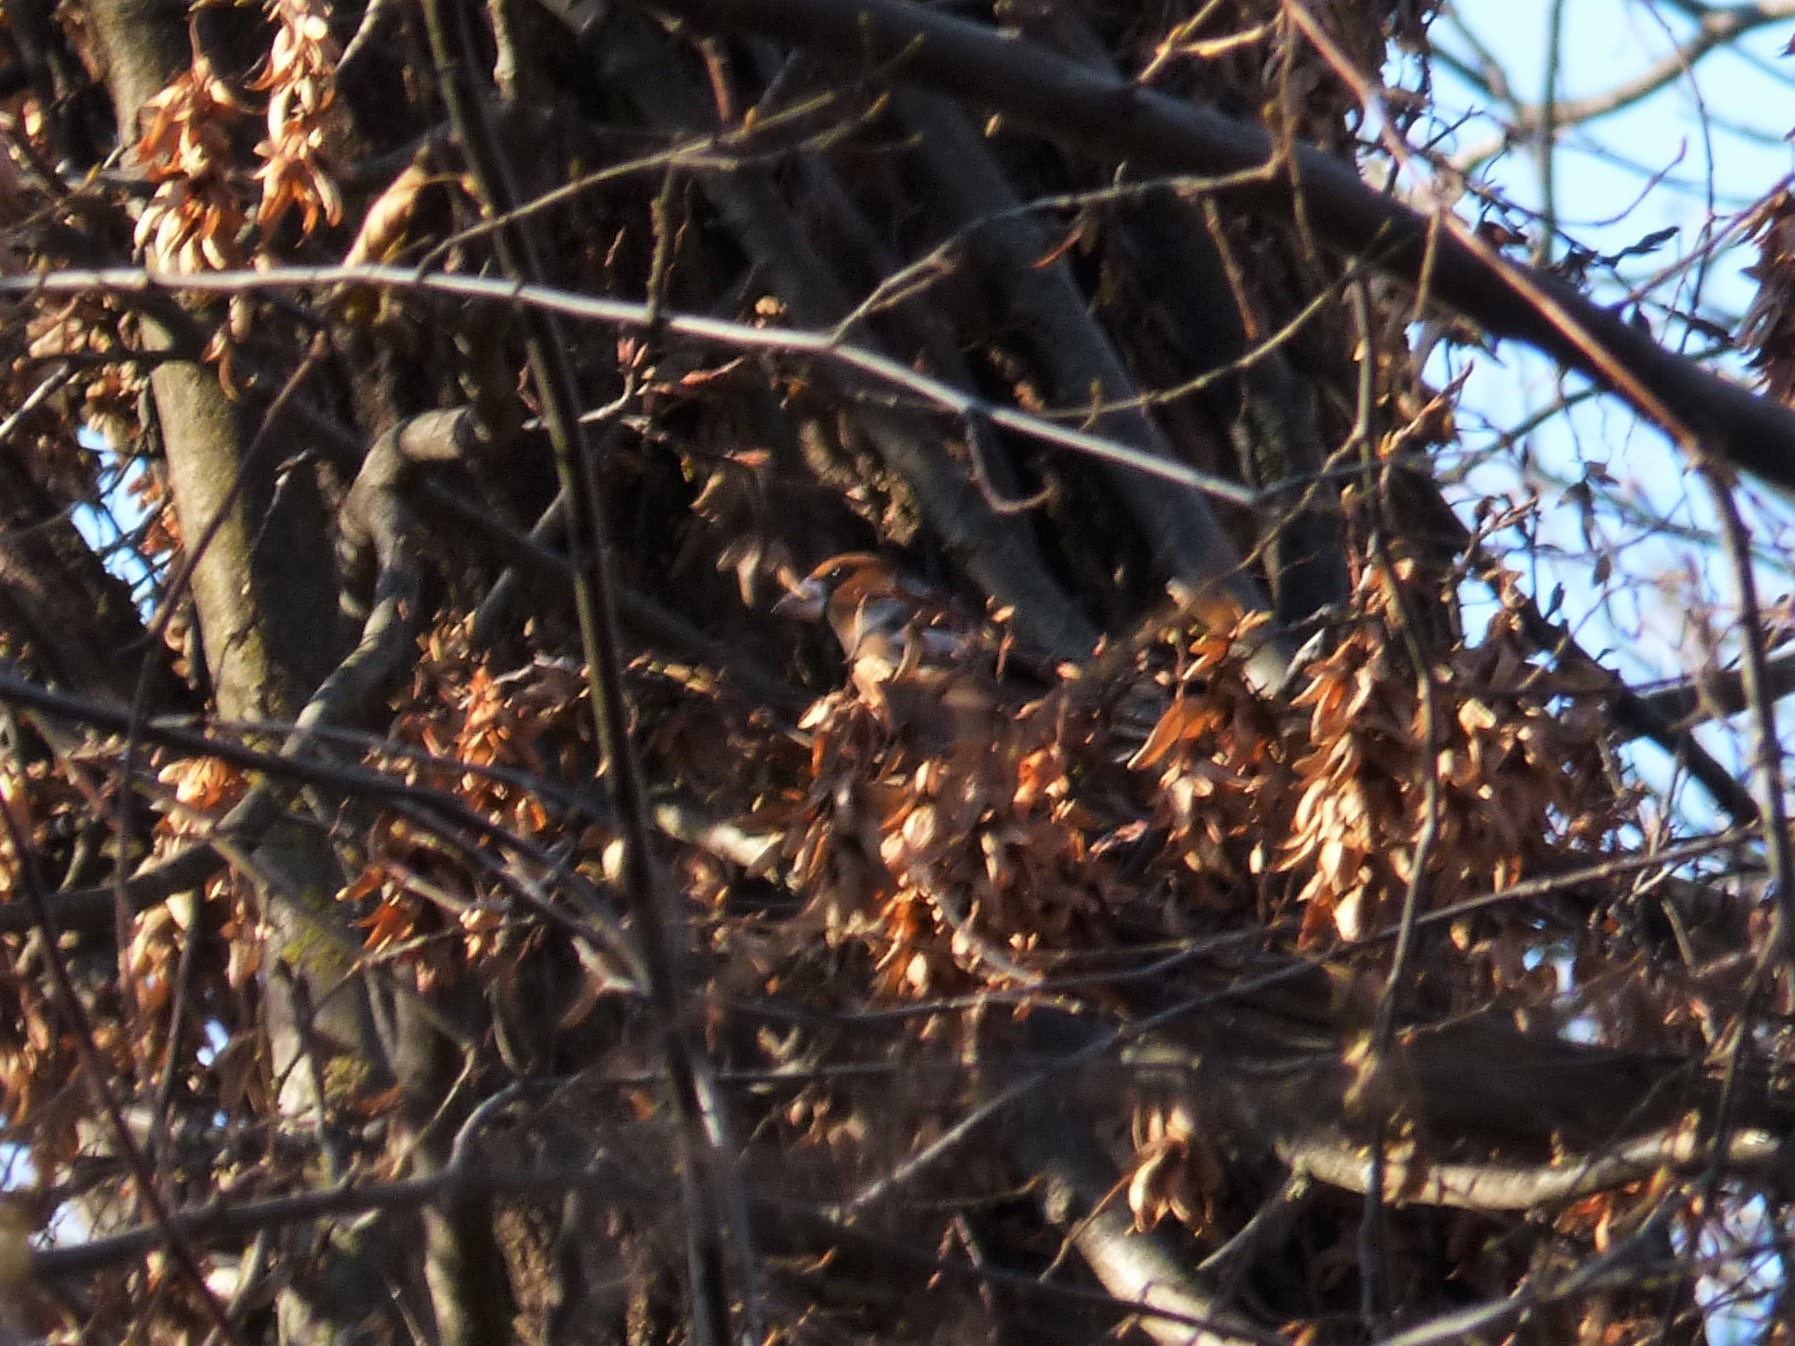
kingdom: Animalia
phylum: Chordata
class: Aves
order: Passeriformes
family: Fringillidae
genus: Coccothraustes
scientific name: Coccothraustes coccothraustes
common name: Hawfinch
